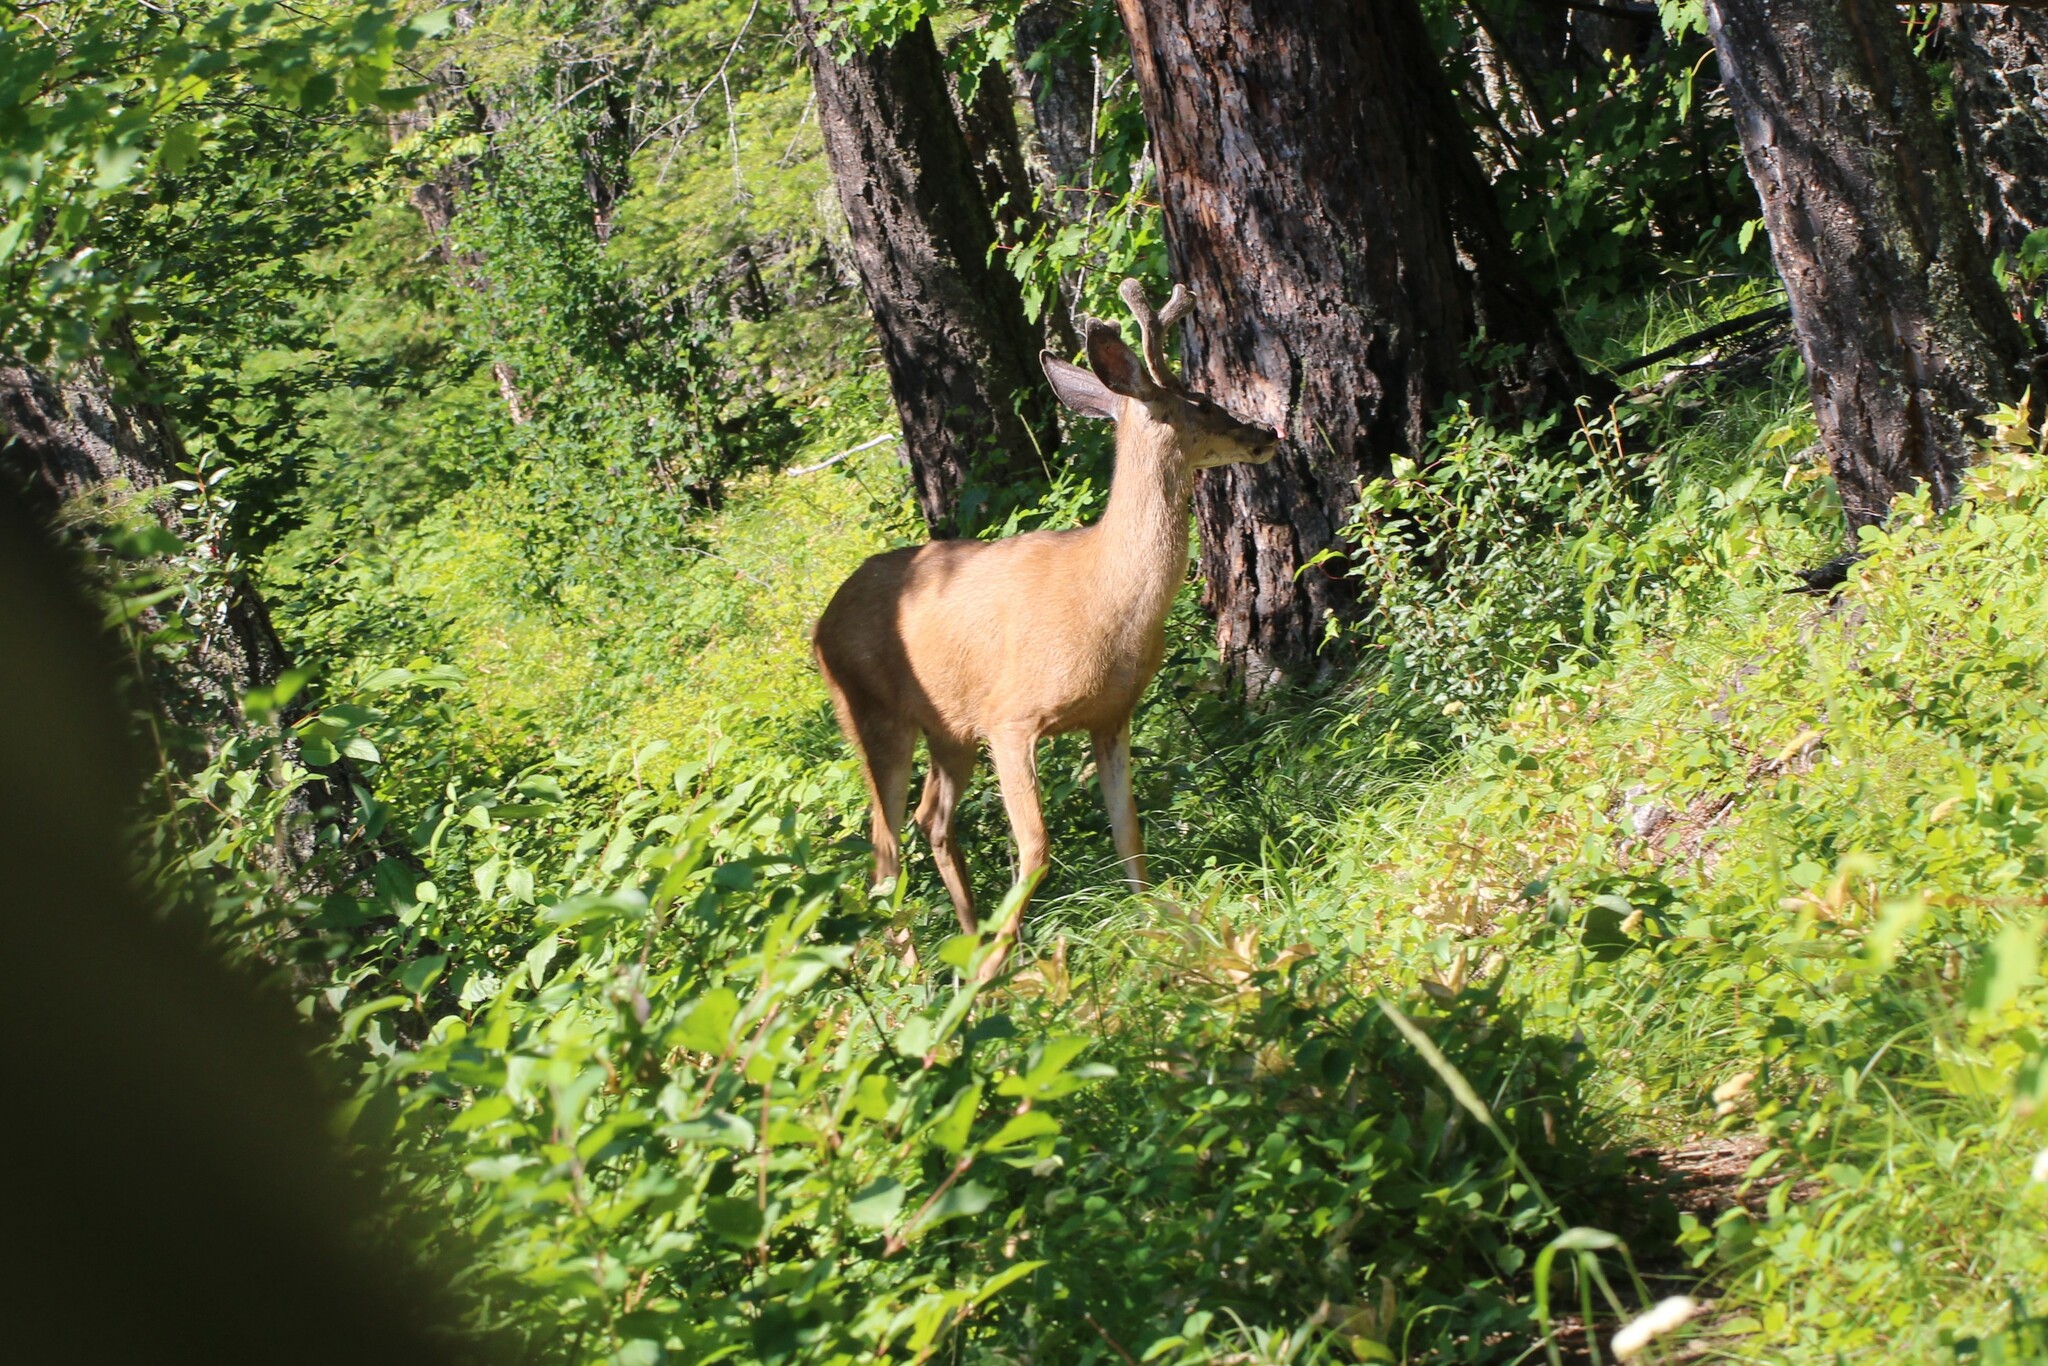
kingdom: Animalia
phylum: Chordata
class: Mammalia
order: Artiodactyla
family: Cervidae
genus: Odocoileus
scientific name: Odocoileus hemionus
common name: Mule deer
